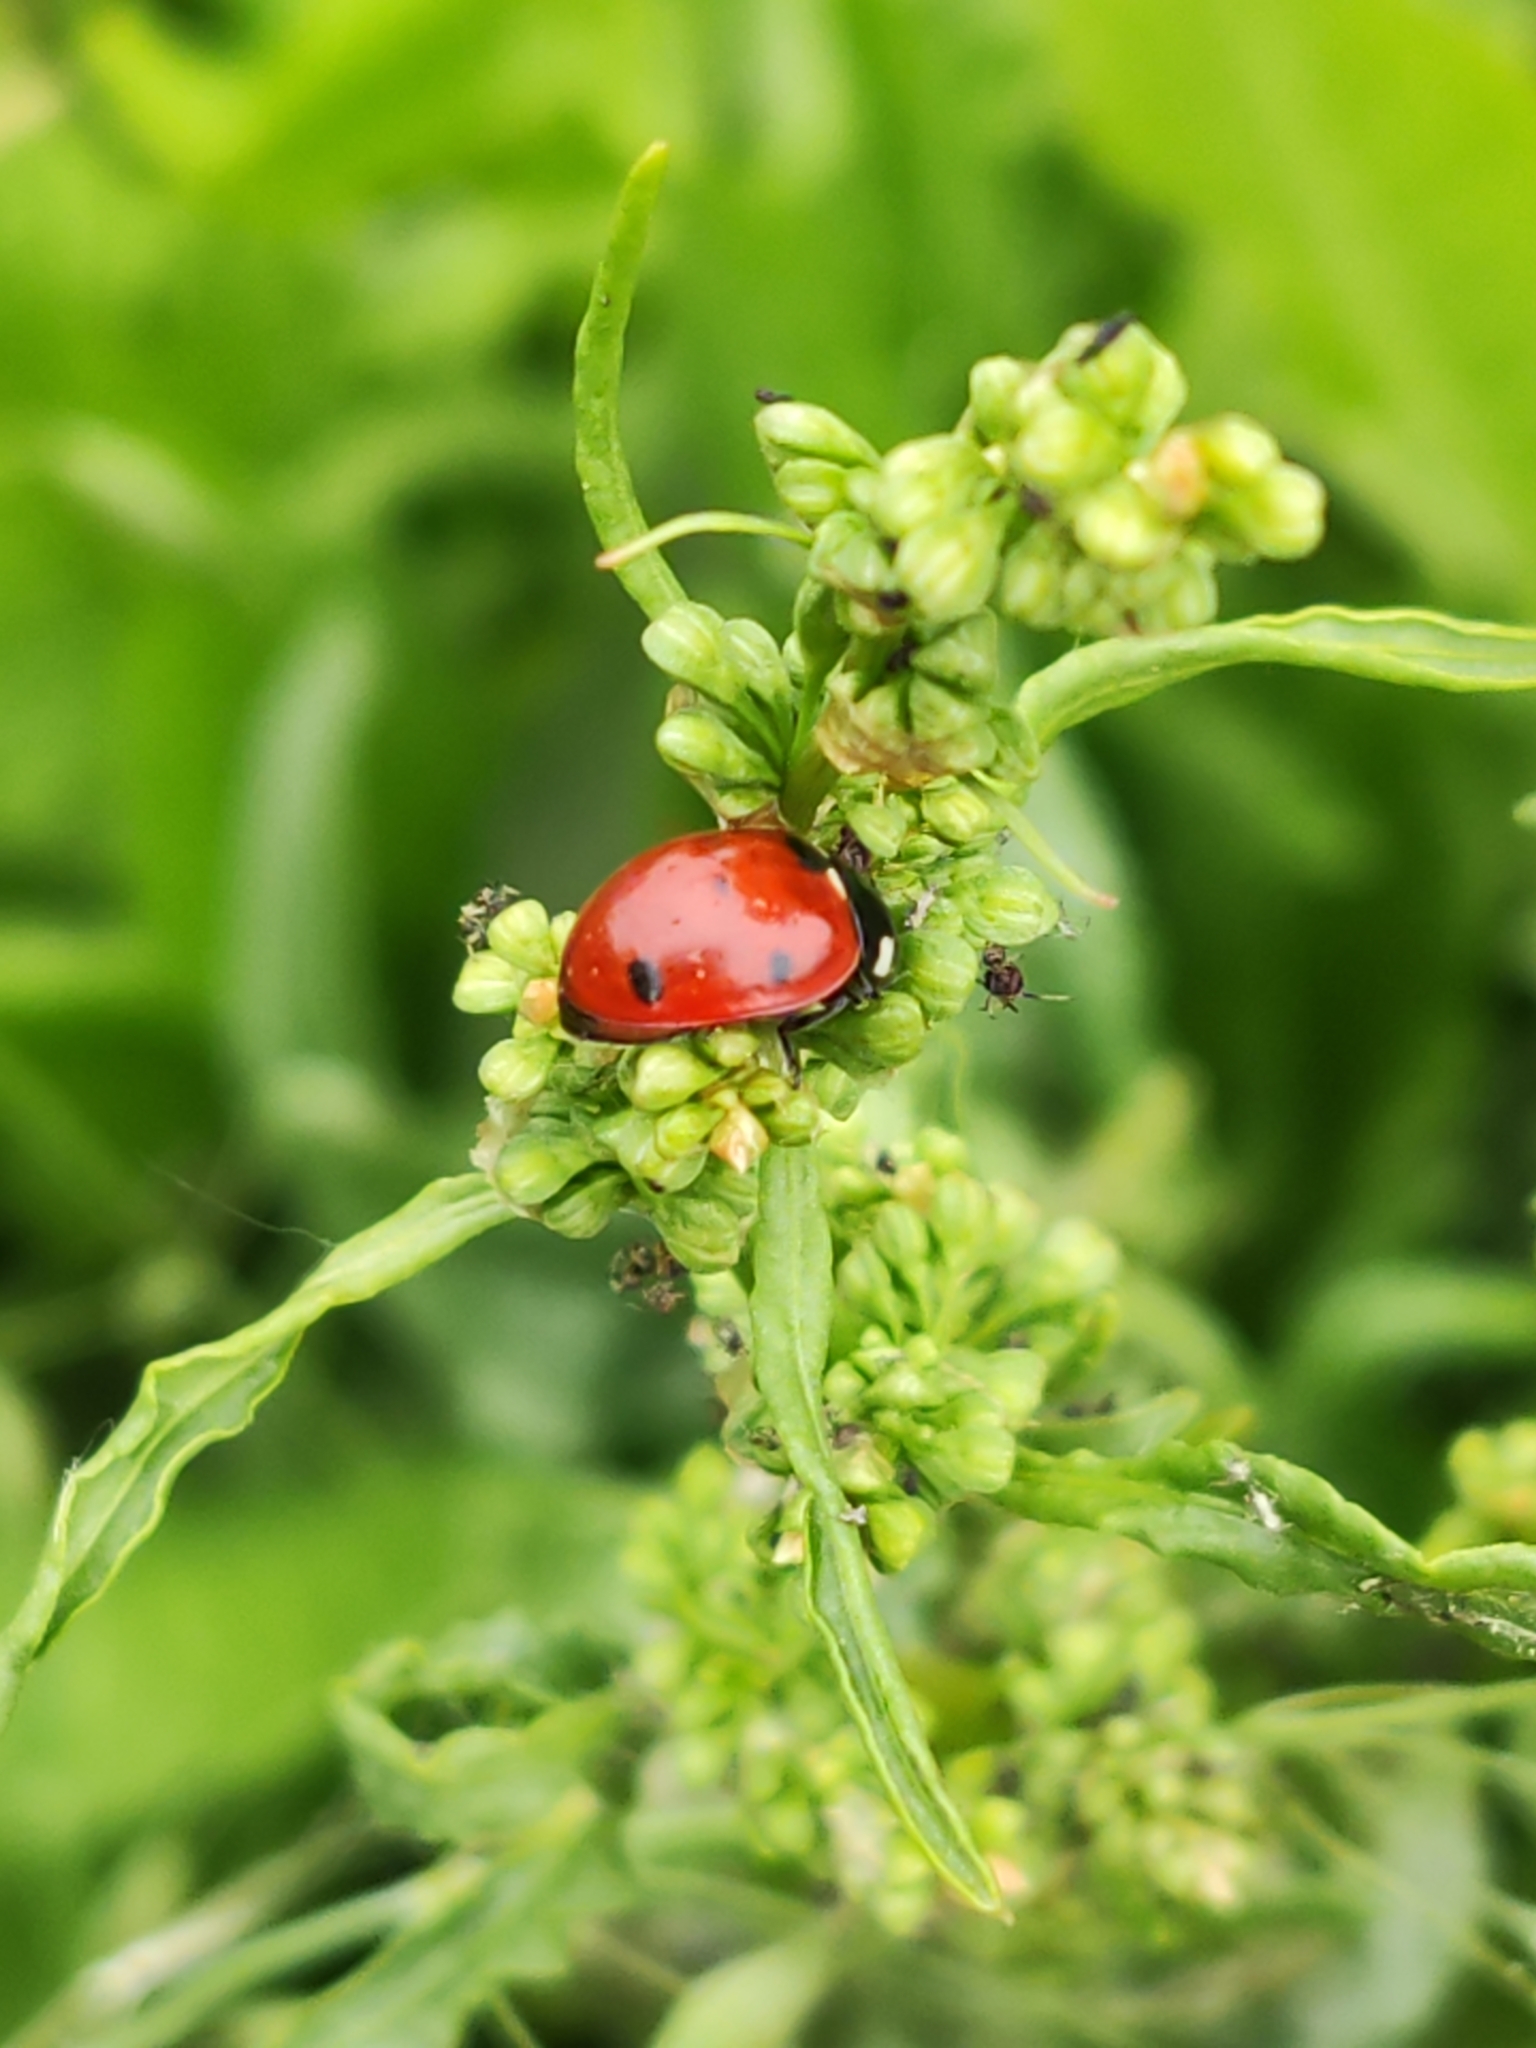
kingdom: Animalia
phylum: Arthropoda
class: Insecta
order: Coleoptera
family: Coccinellidae
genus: Coccinella
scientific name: Coccinella septempunctata
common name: Sevenspotted lady beetle
